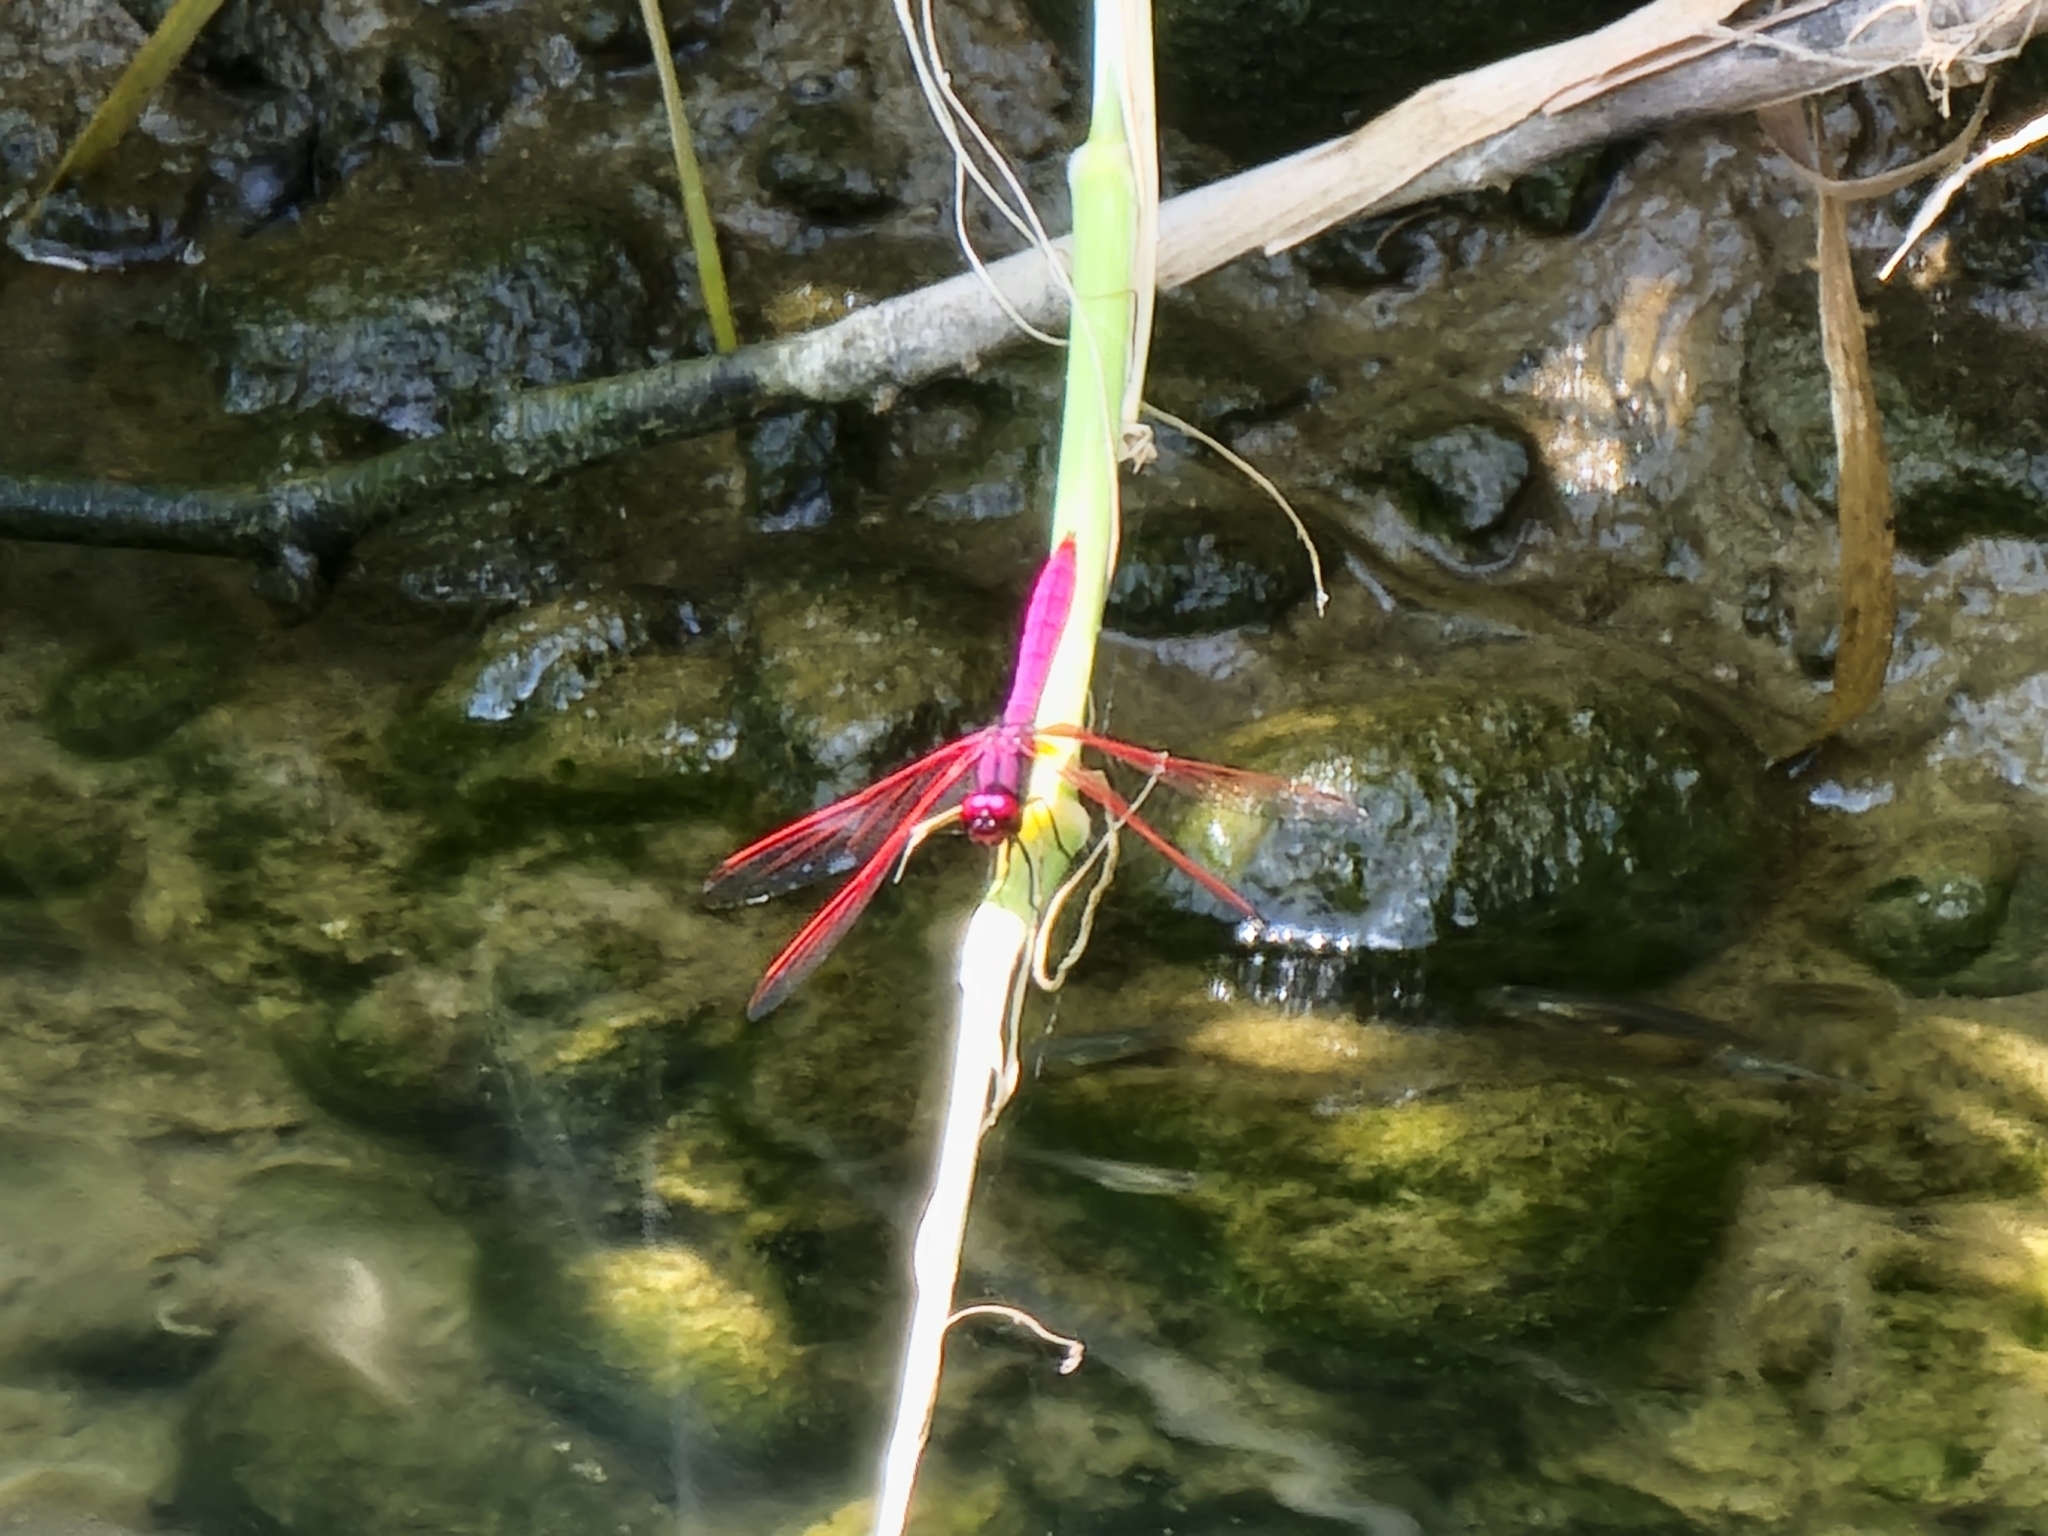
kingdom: Animalia
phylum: Arthropoda
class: Insecta
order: Odonata
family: Libellulidae
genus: Trithemis
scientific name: Trithemis aurora
